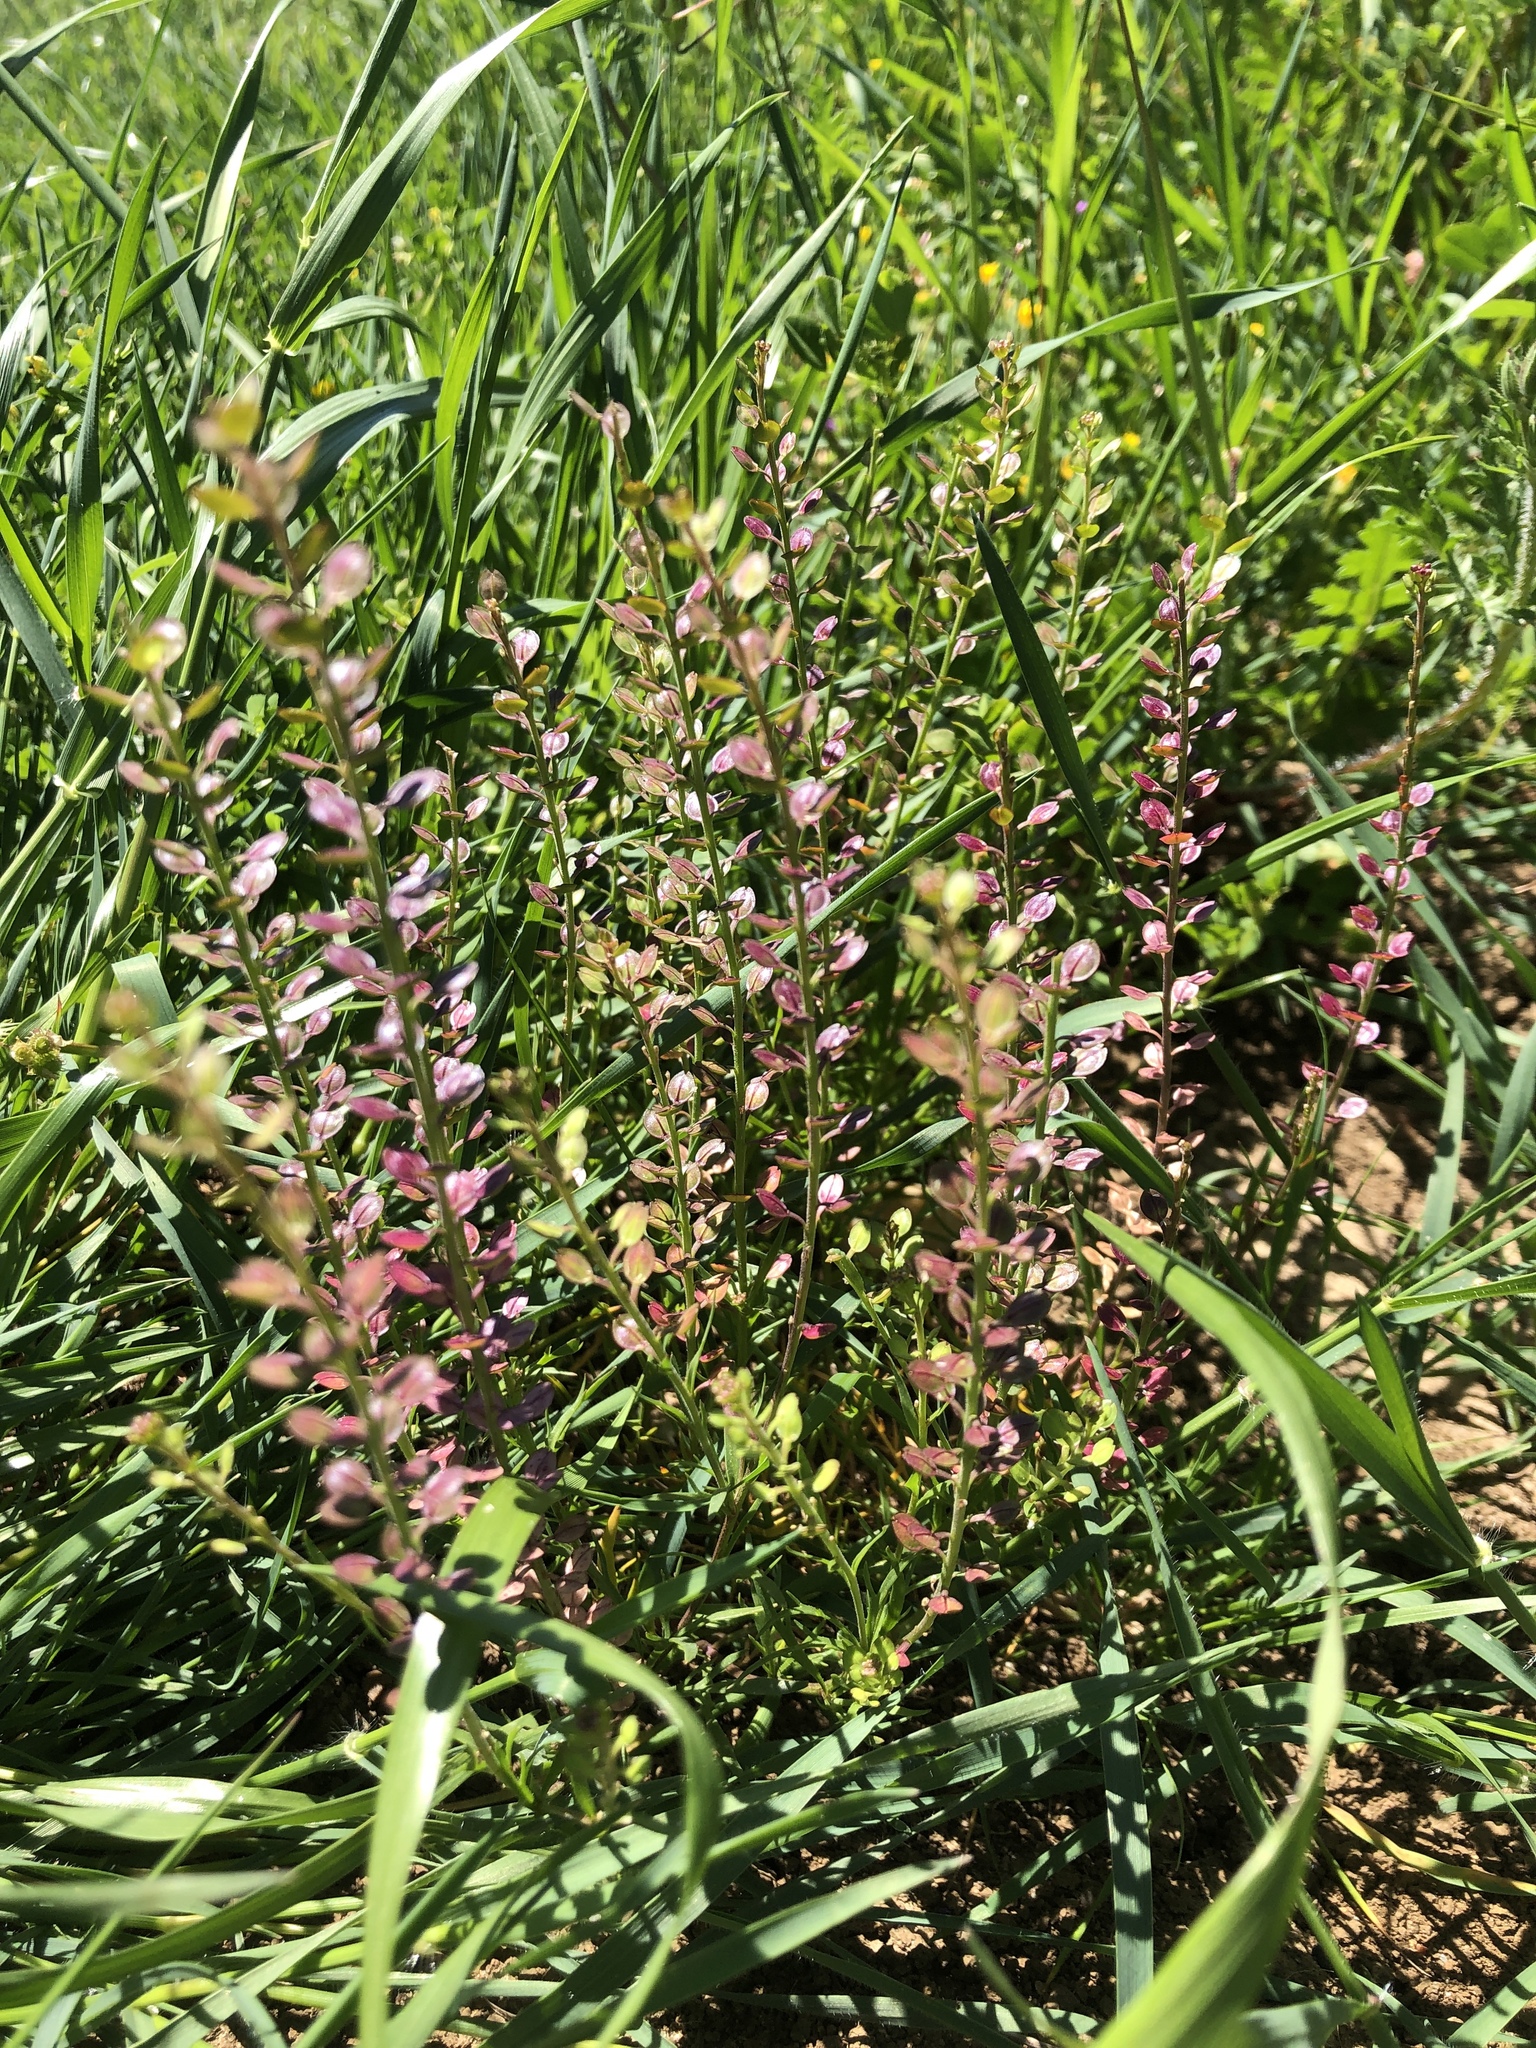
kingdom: Plantae
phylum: Tracheophyta
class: Magnoliopsida
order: Brassicales
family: Brassicaceae
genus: Lepidium
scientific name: Lepidium nitidum
